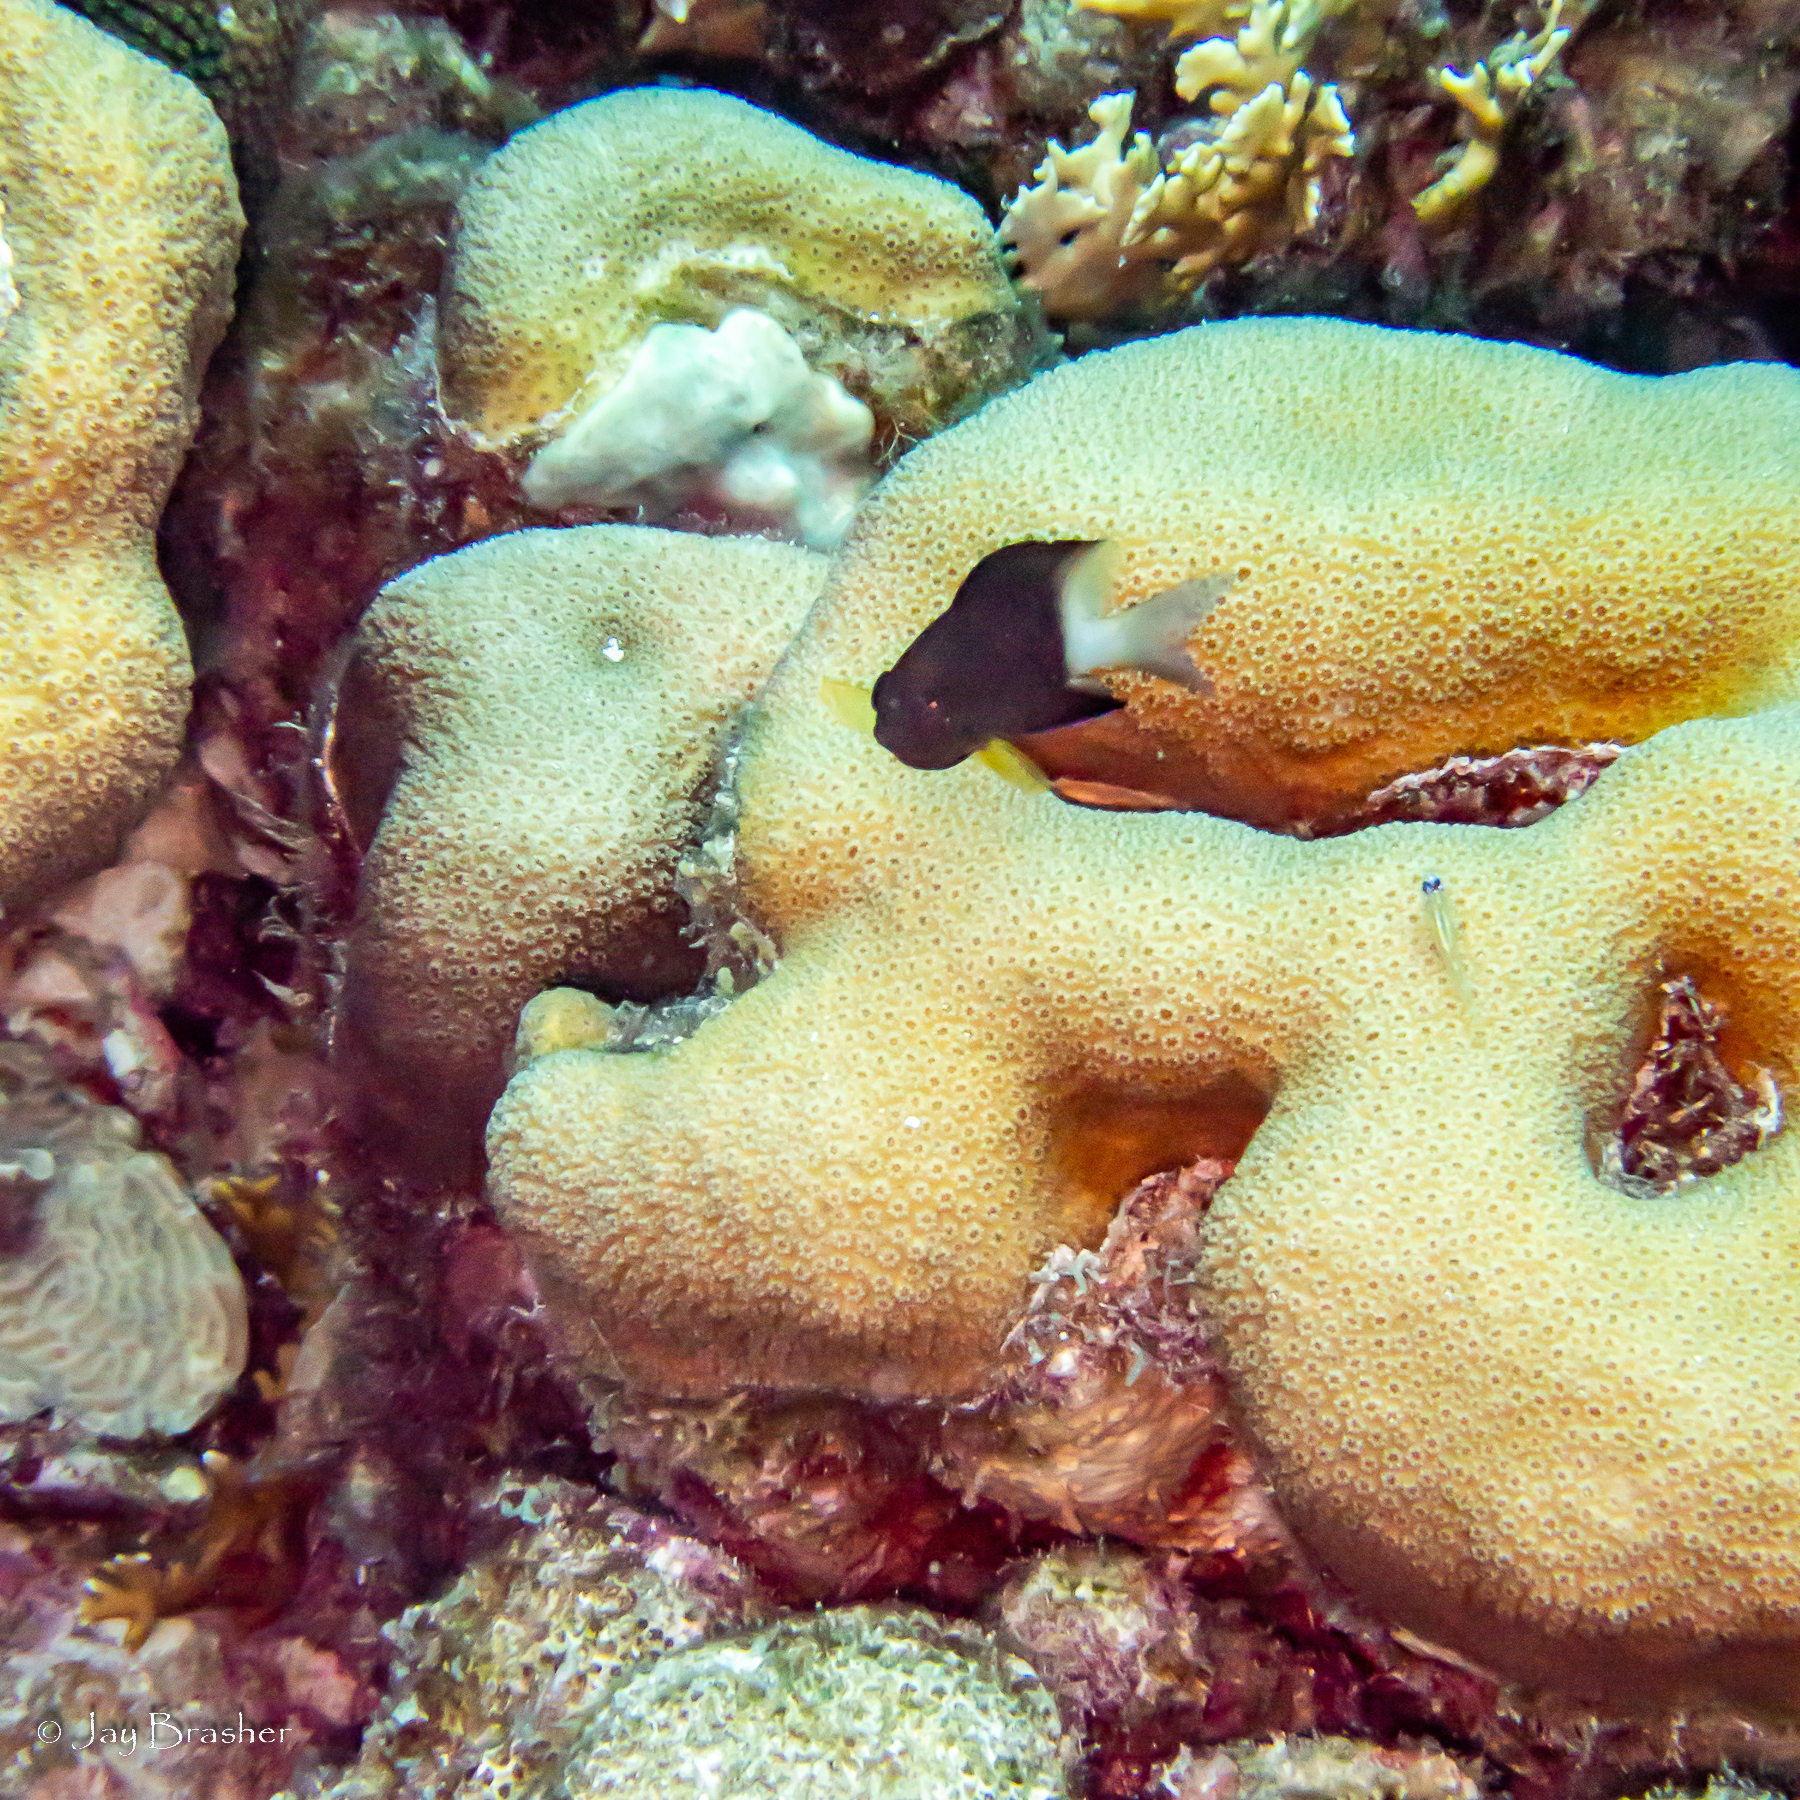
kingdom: Animalia
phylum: Chordata
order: Perciformes
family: Pomacentridae
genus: Stegastes
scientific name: Stegastes partitus
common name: Bicolor damselfish
